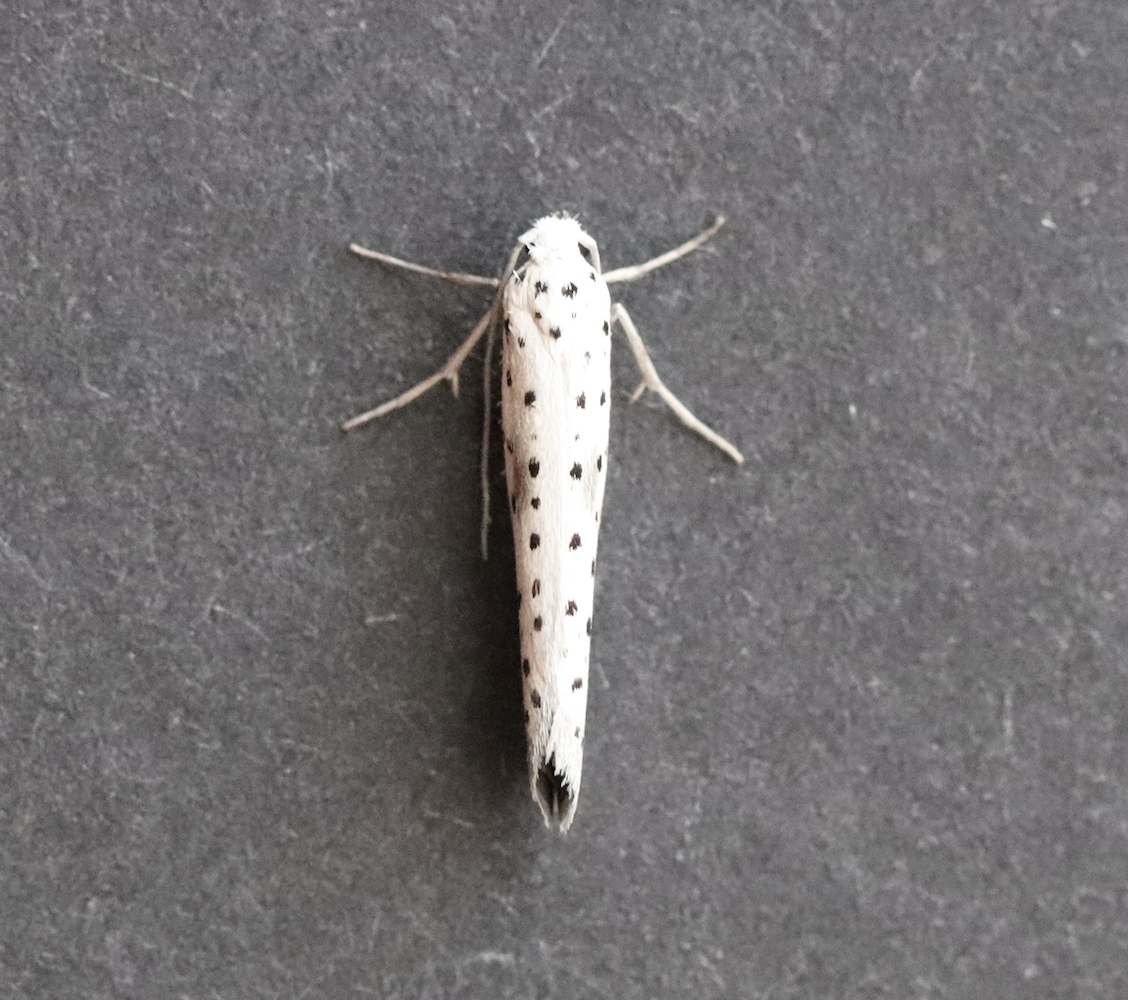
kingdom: Animalia
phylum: Arthropoda
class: Insecta
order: Lepidoptera
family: Yponomeutidae
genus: Yponomeuta
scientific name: Yponomeuta irrorella
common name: Scarce ermine
